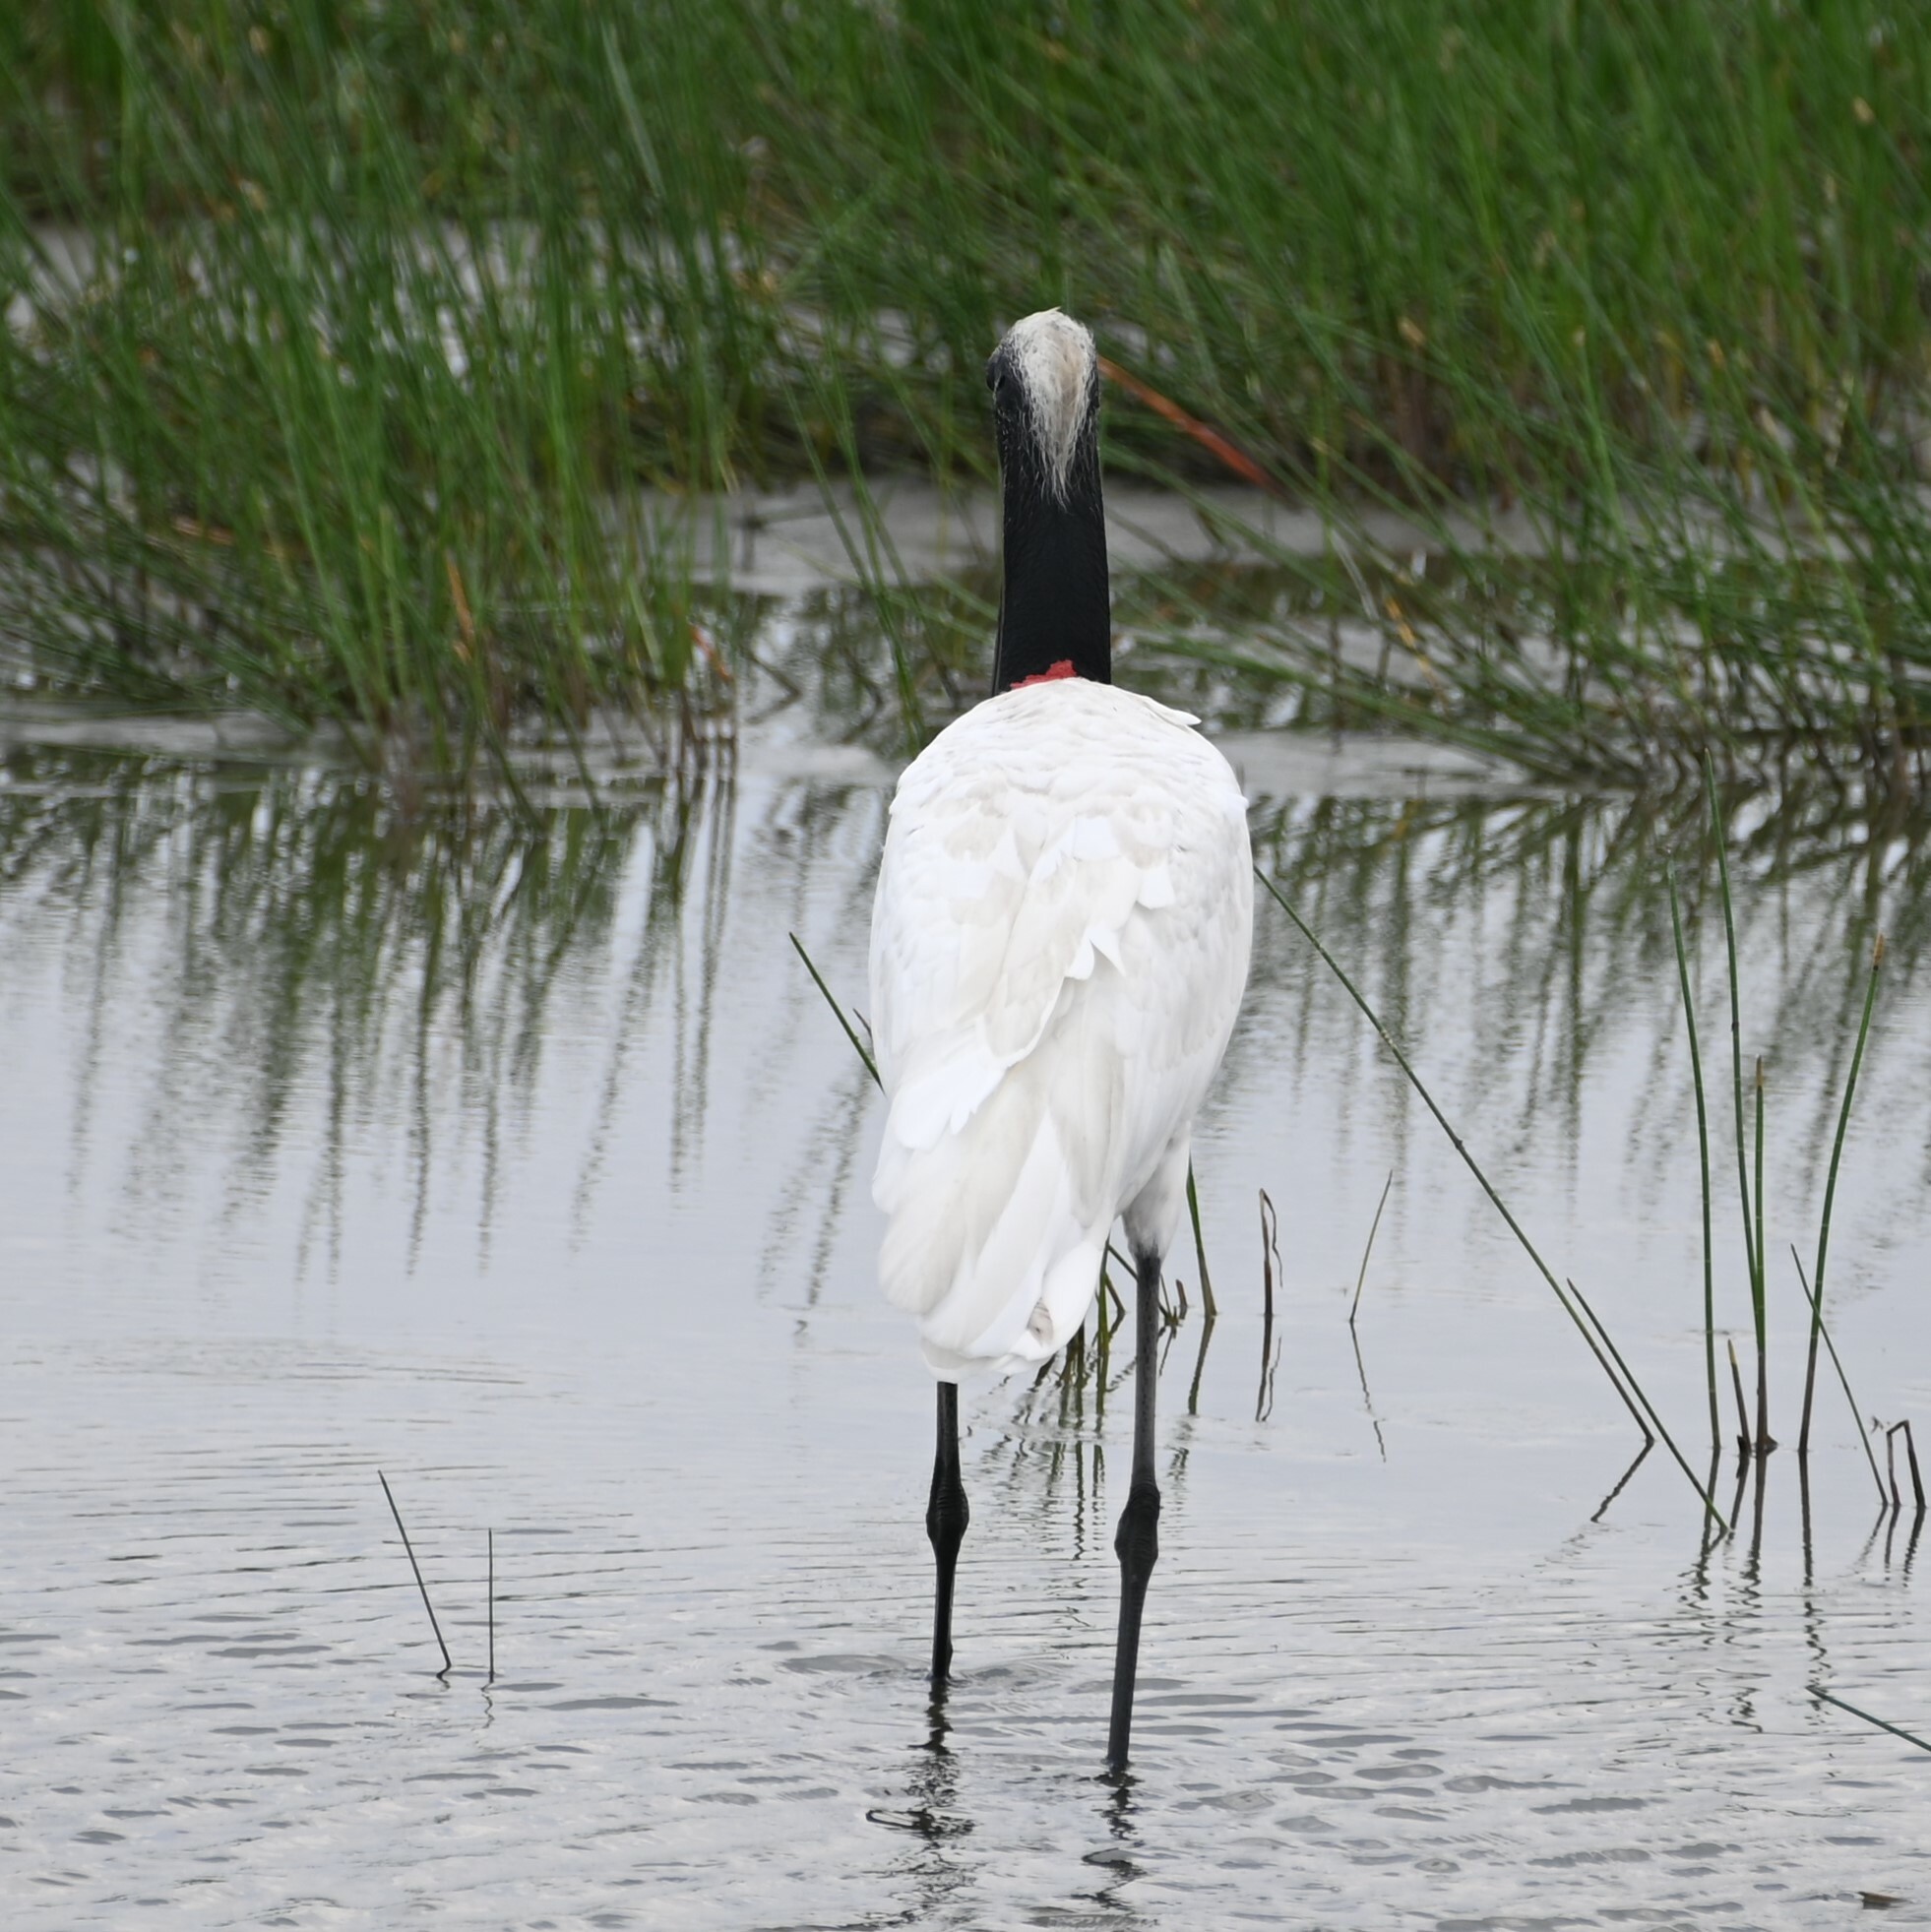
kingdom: Animalia
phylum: Chordata
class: Aves
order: Ciconiiformes
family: Ciconiidae
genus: Jabiru
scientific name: Jabiru mycteria
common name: Jabiru
